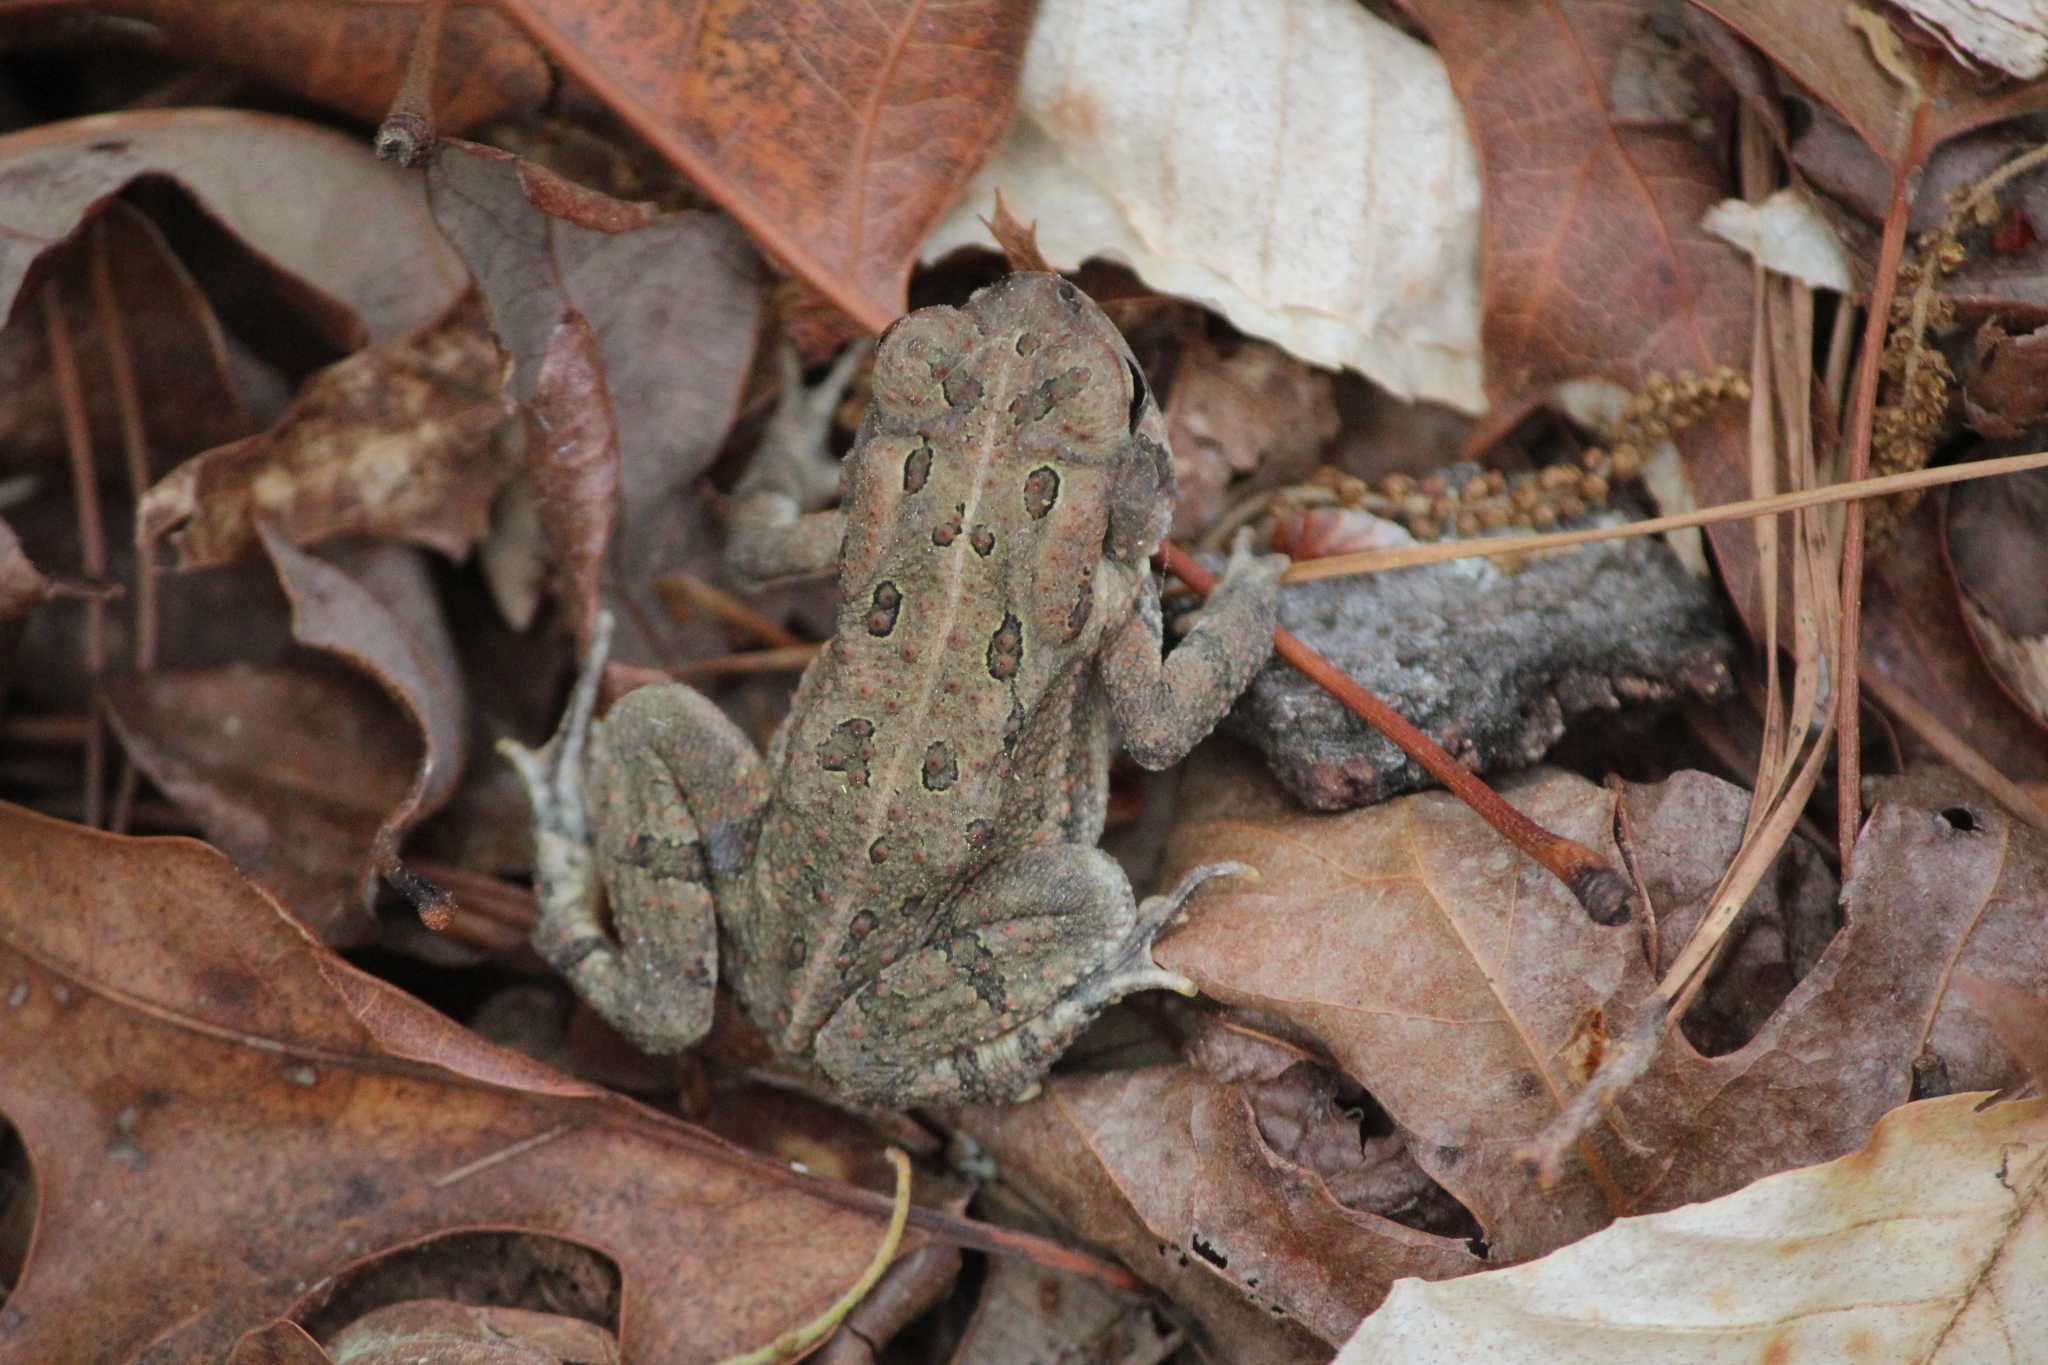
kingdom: Animalia
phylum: Chordata
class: Amphibia
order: Anura
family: Bufonidae
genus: Anaxyrus
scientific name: Anaxyrus fowleri
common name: Fowler's toad
